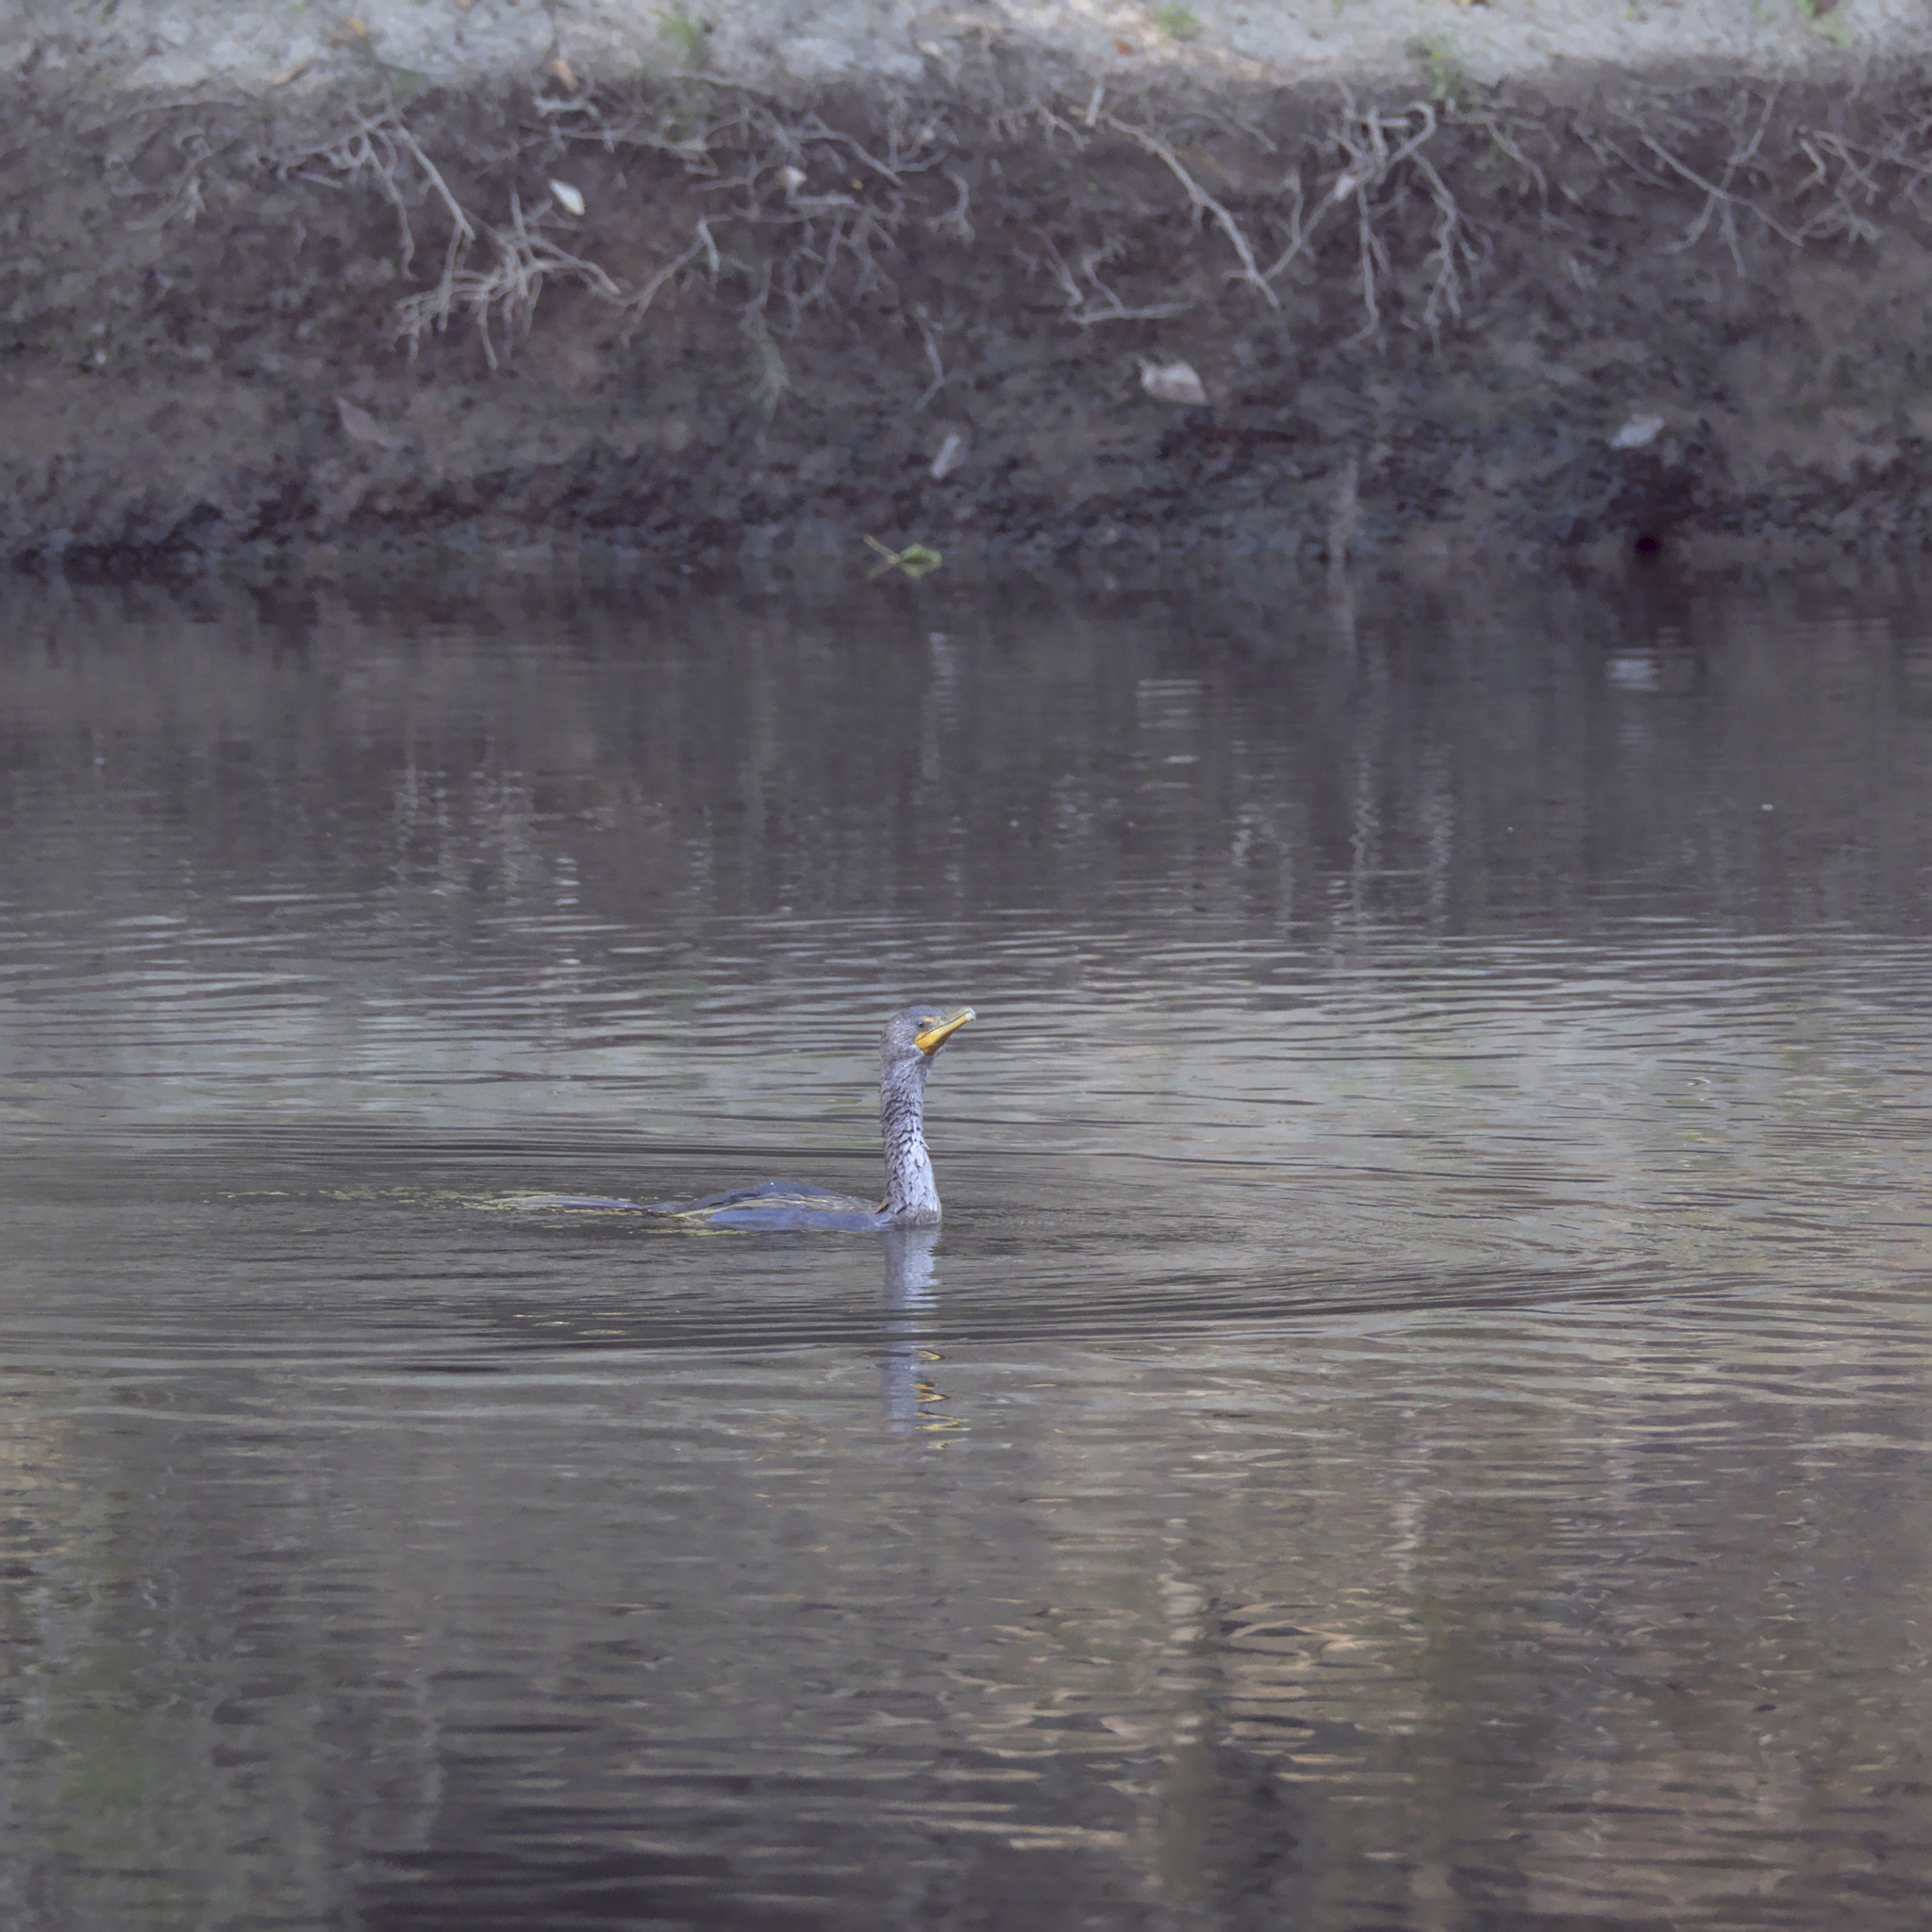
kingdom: Animalia
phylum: Chordata
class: Aves
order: Suliformes
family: Phalacrocoracidae
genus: Phalacrocorax
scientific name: Phalacrocorax auritus
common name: Double-crested cormorant
